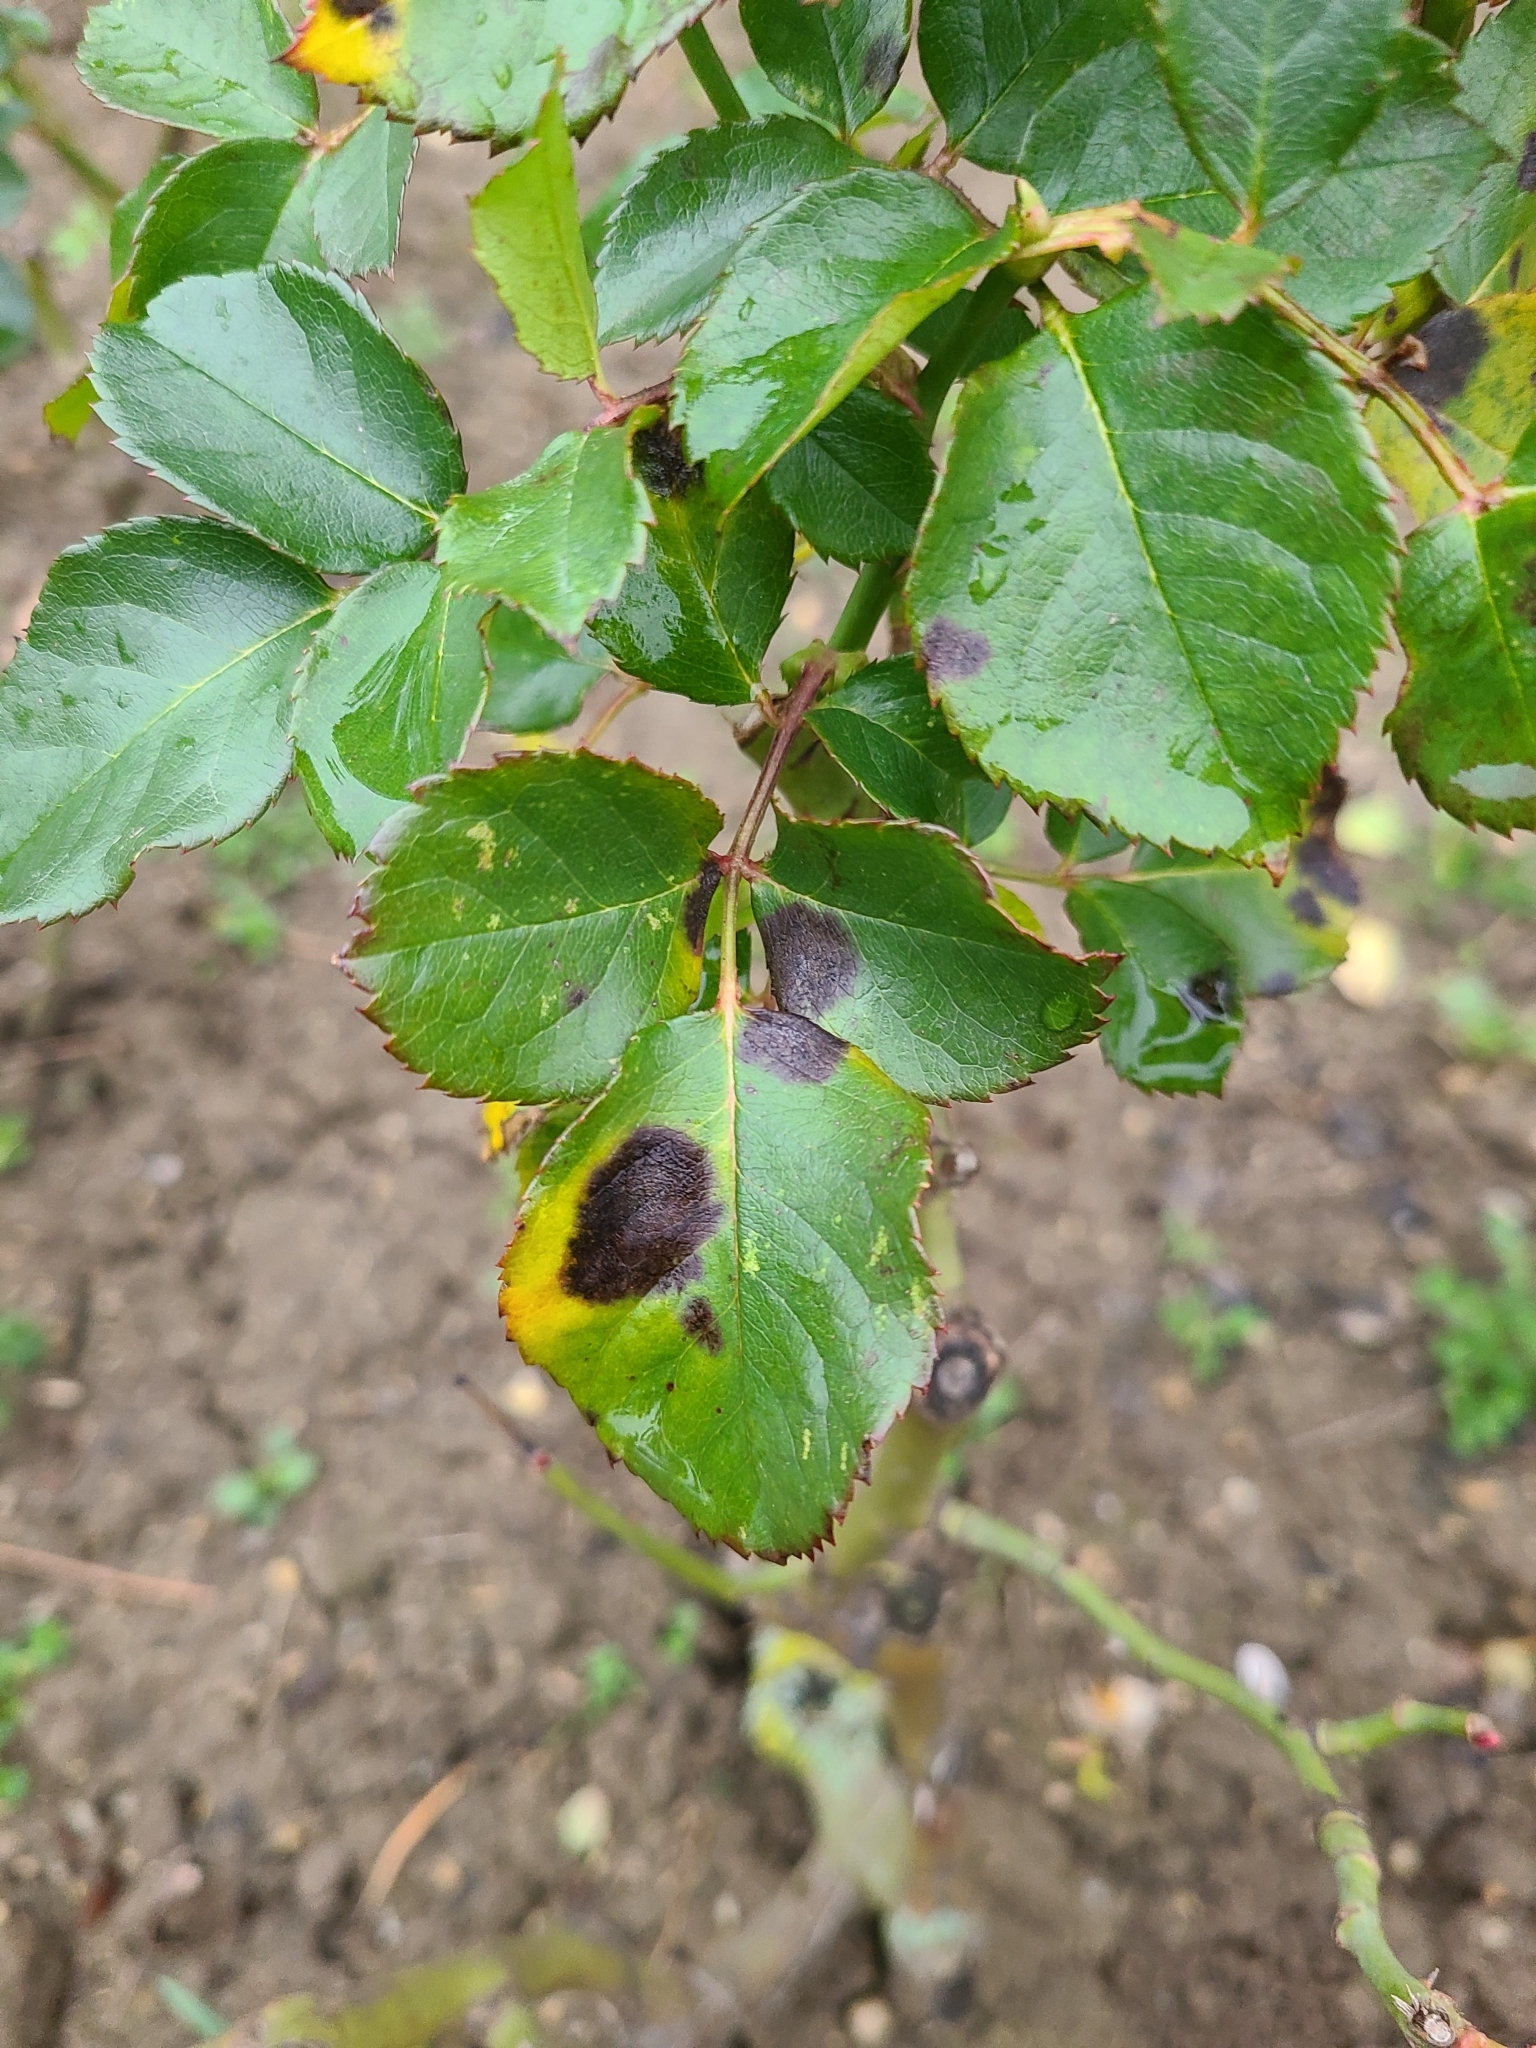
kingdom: Fungi
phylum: Ascomycota
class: Leotiomycetes
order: Helotiales
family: Drepanopezizaceae
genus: Diplocarpon
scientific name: Diplocarpon rosae
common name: Rose black-spot
